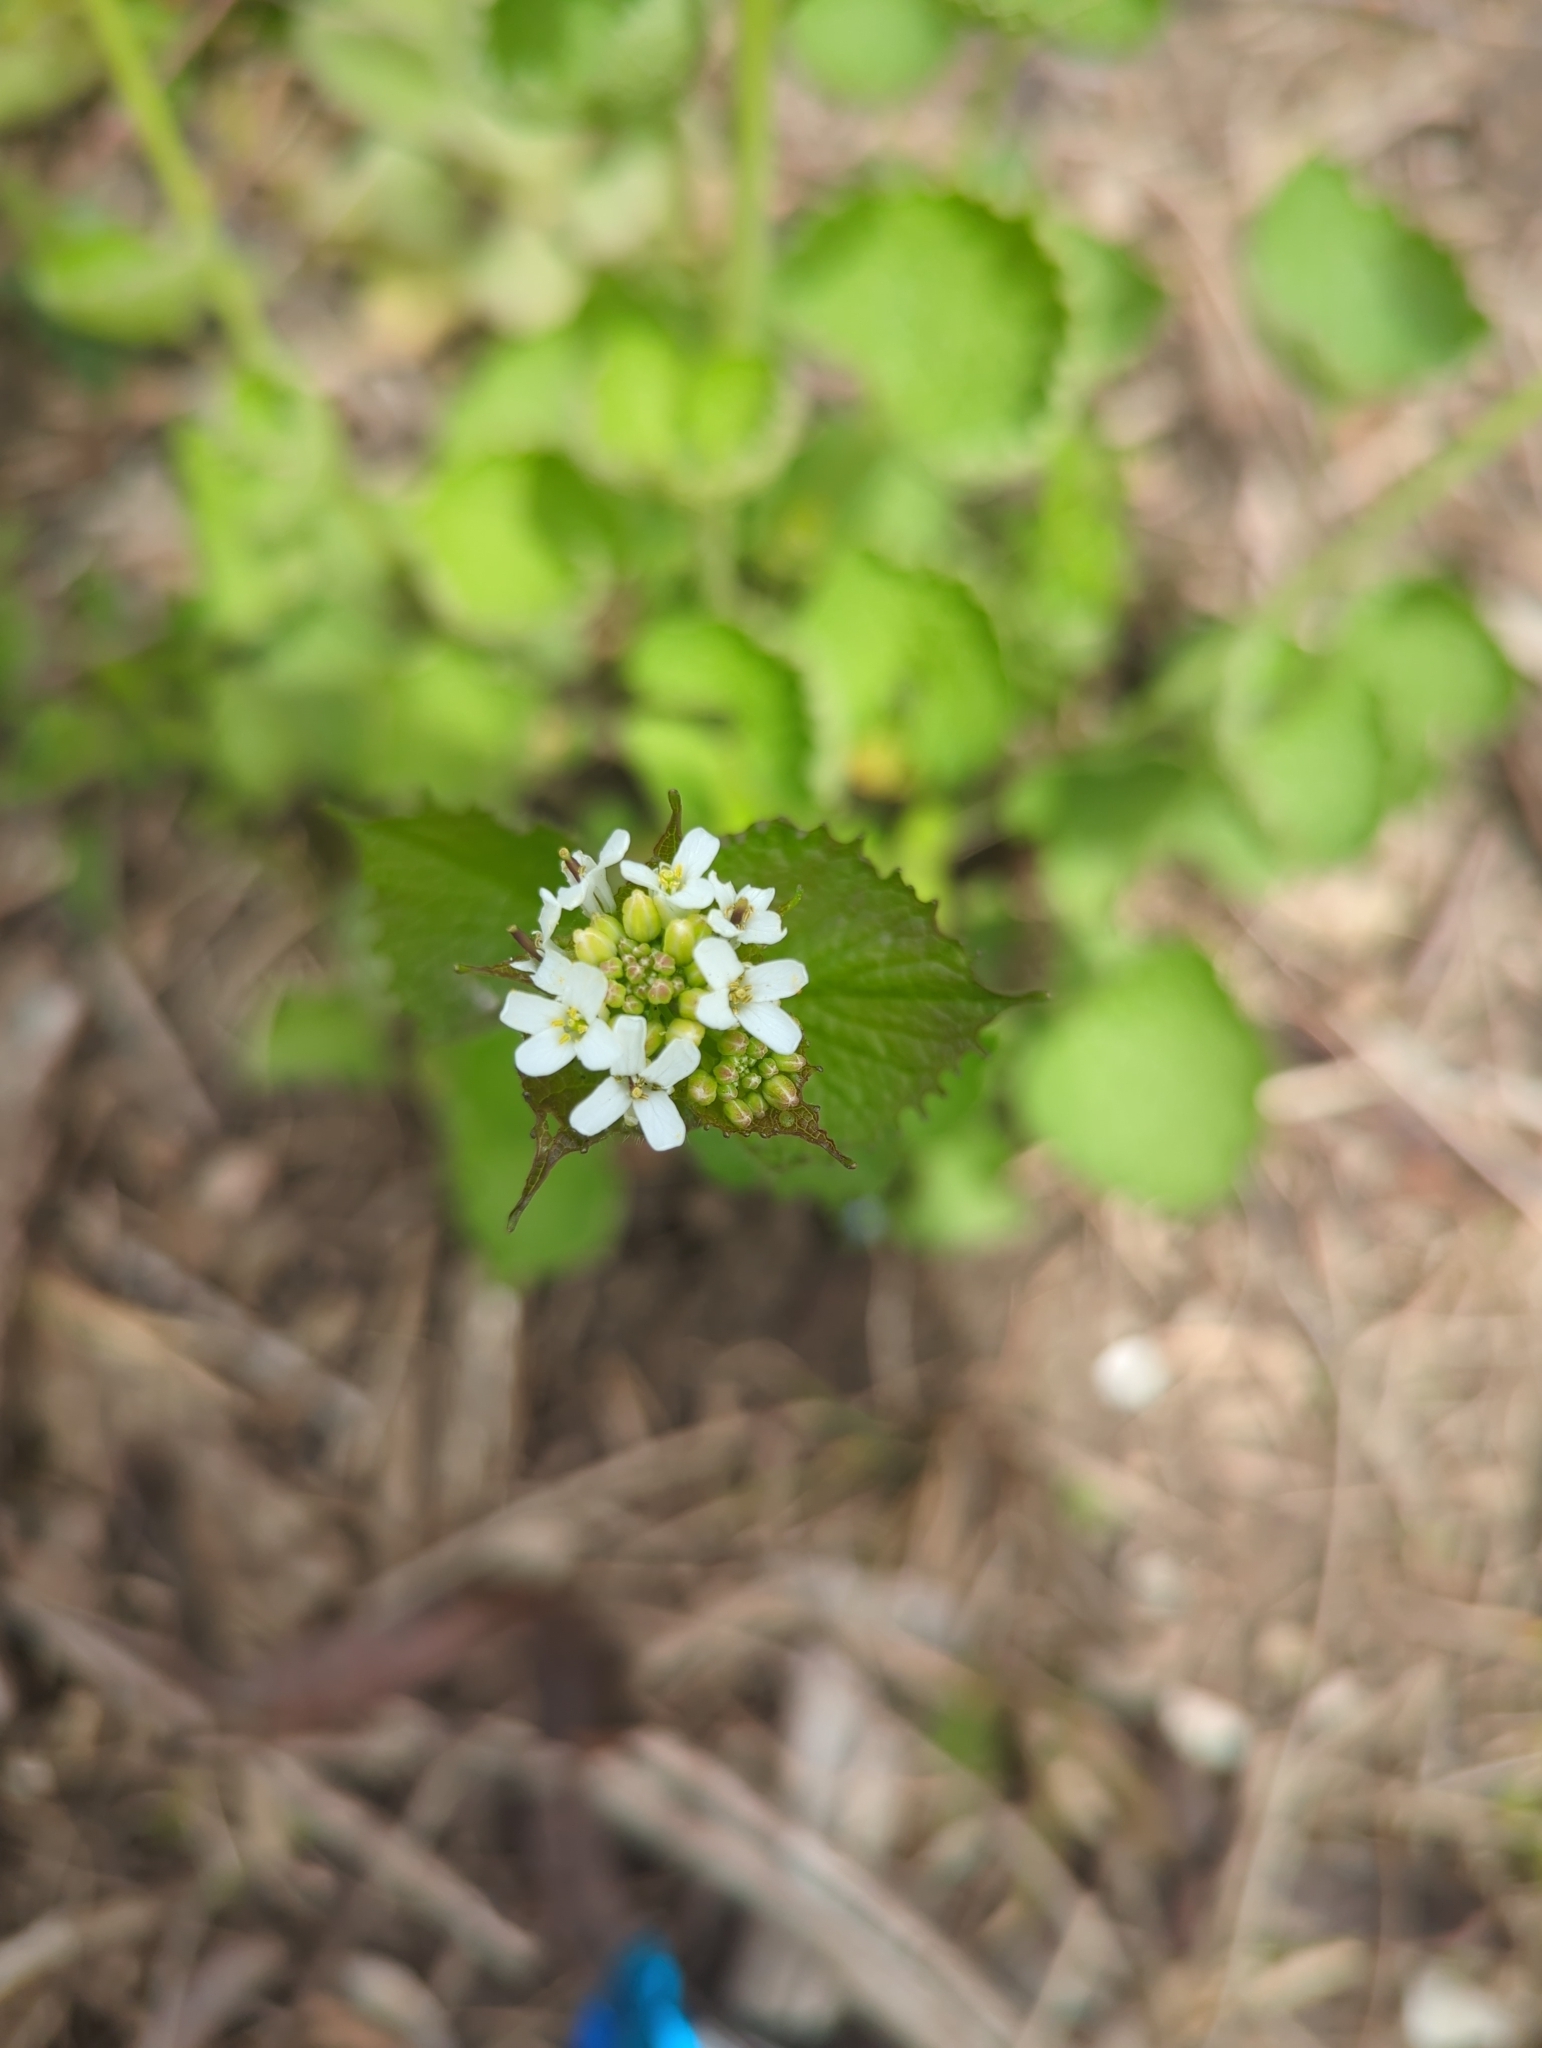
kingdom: Plantae
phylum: Tracheophyta
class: Magnoliopsida
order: Brassicales
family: Brassicaceae
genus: Alliaria
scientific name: Alliaria petiolata
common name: Garlic mustard
